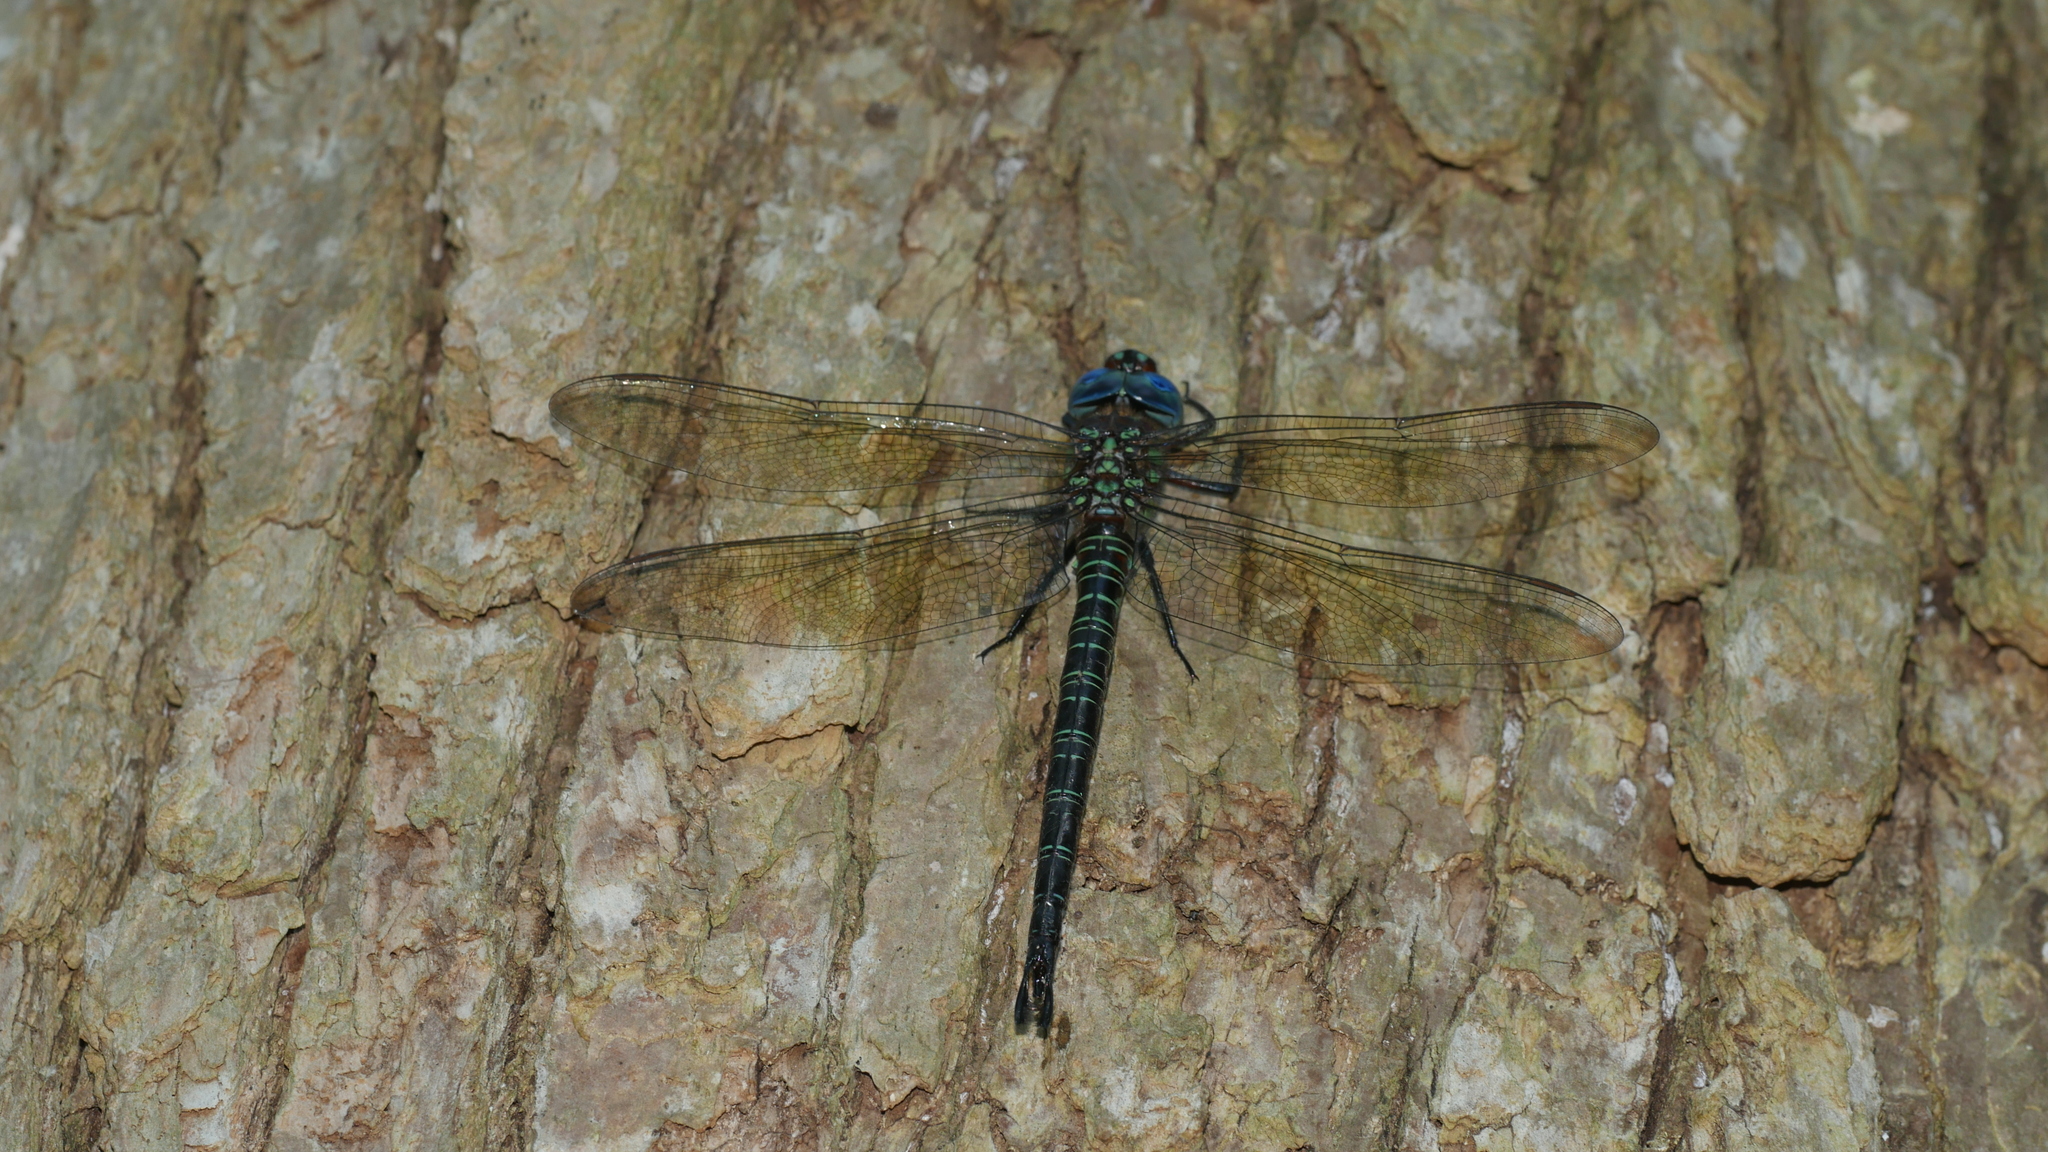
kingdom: Animalia
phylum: Arthropoda
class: Insecta
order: Odonata
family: Aeshnidae
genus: Epiaeschna
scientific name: Epiaeschna heros
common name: Swamp darner
